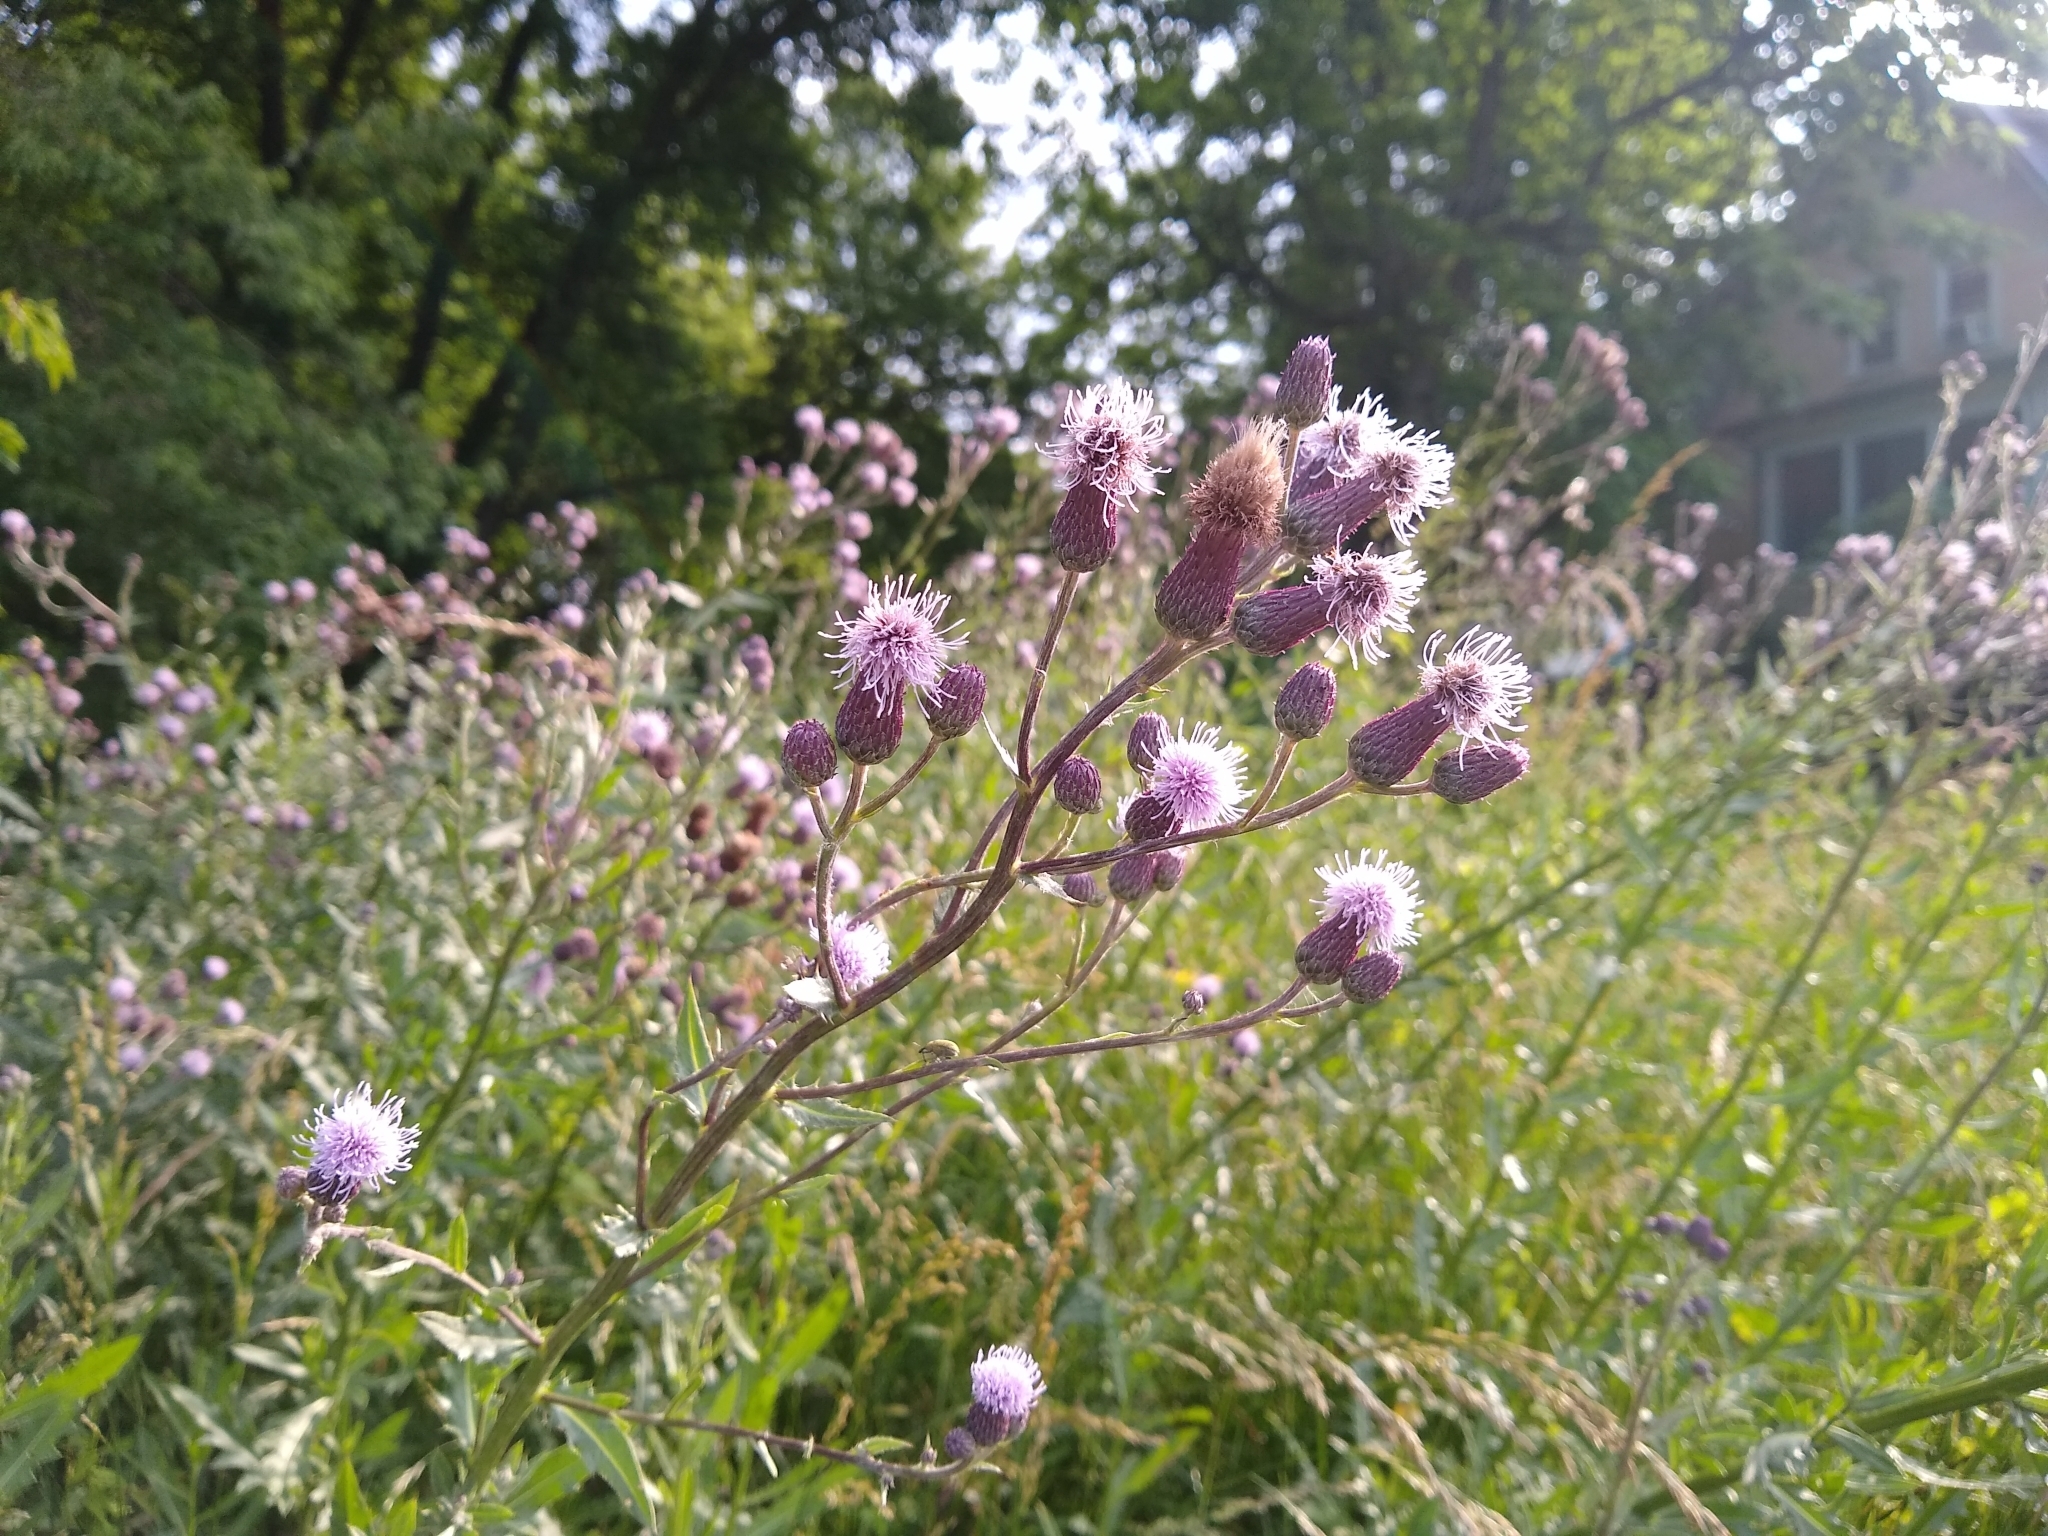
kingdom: Plantae
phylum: Tracheophyta
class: Magnoliopsida
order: Asterales
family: Asteraceae
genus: Cirsium
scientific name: Cirsium arvense
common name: Creeping thistle
